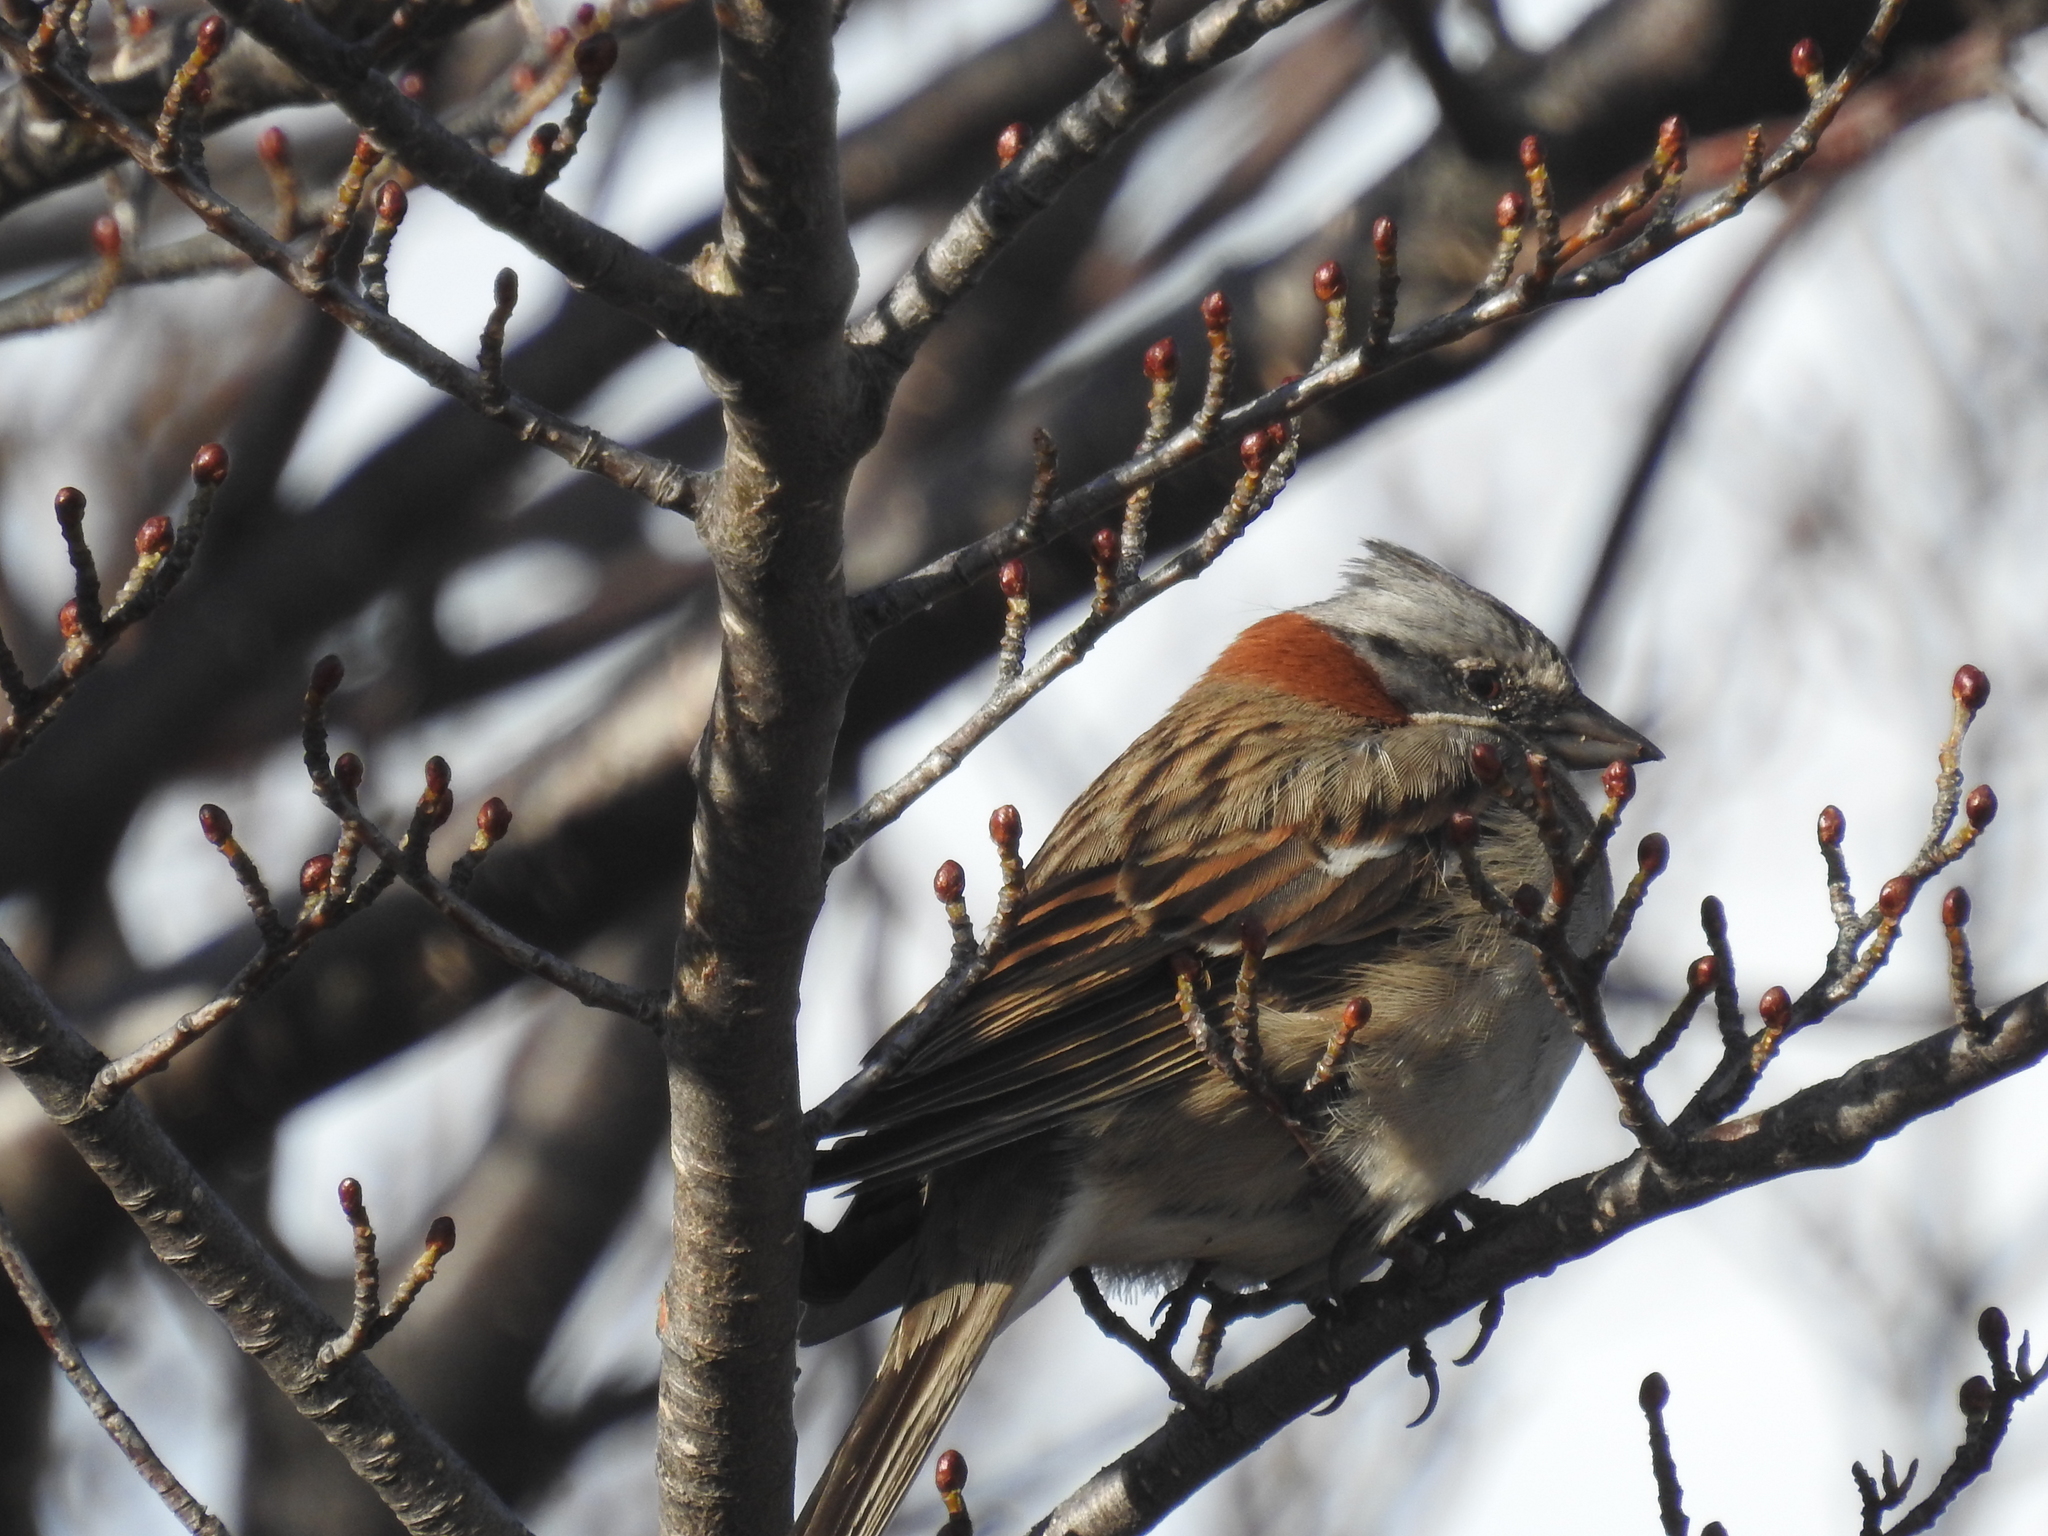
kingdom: Animalia
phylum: Chordata
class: Aves
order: Passeriformes
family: Passerellidae
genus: Zonotrichia
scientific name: Zonotrichia capensis
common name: Rufous-collared sparrow
